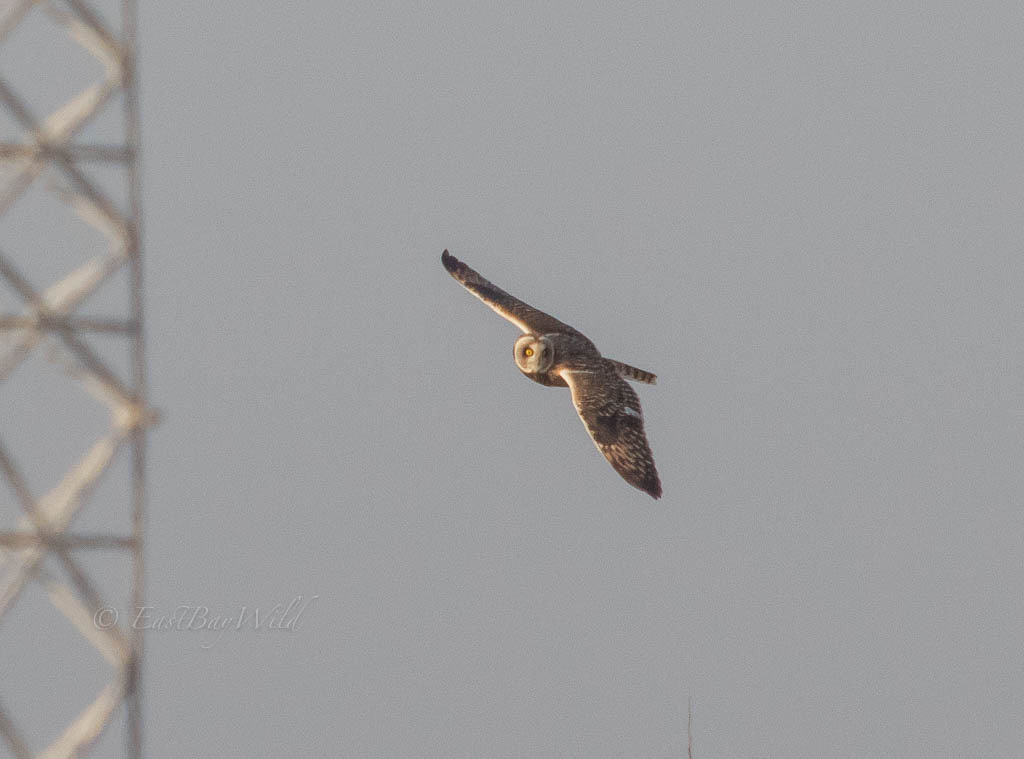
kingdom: Animalia
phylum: Chordata
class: Aves
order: Strigiformes
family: Strigidae
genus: Asio
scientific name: Asio flammeus
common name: Short-eared owl
